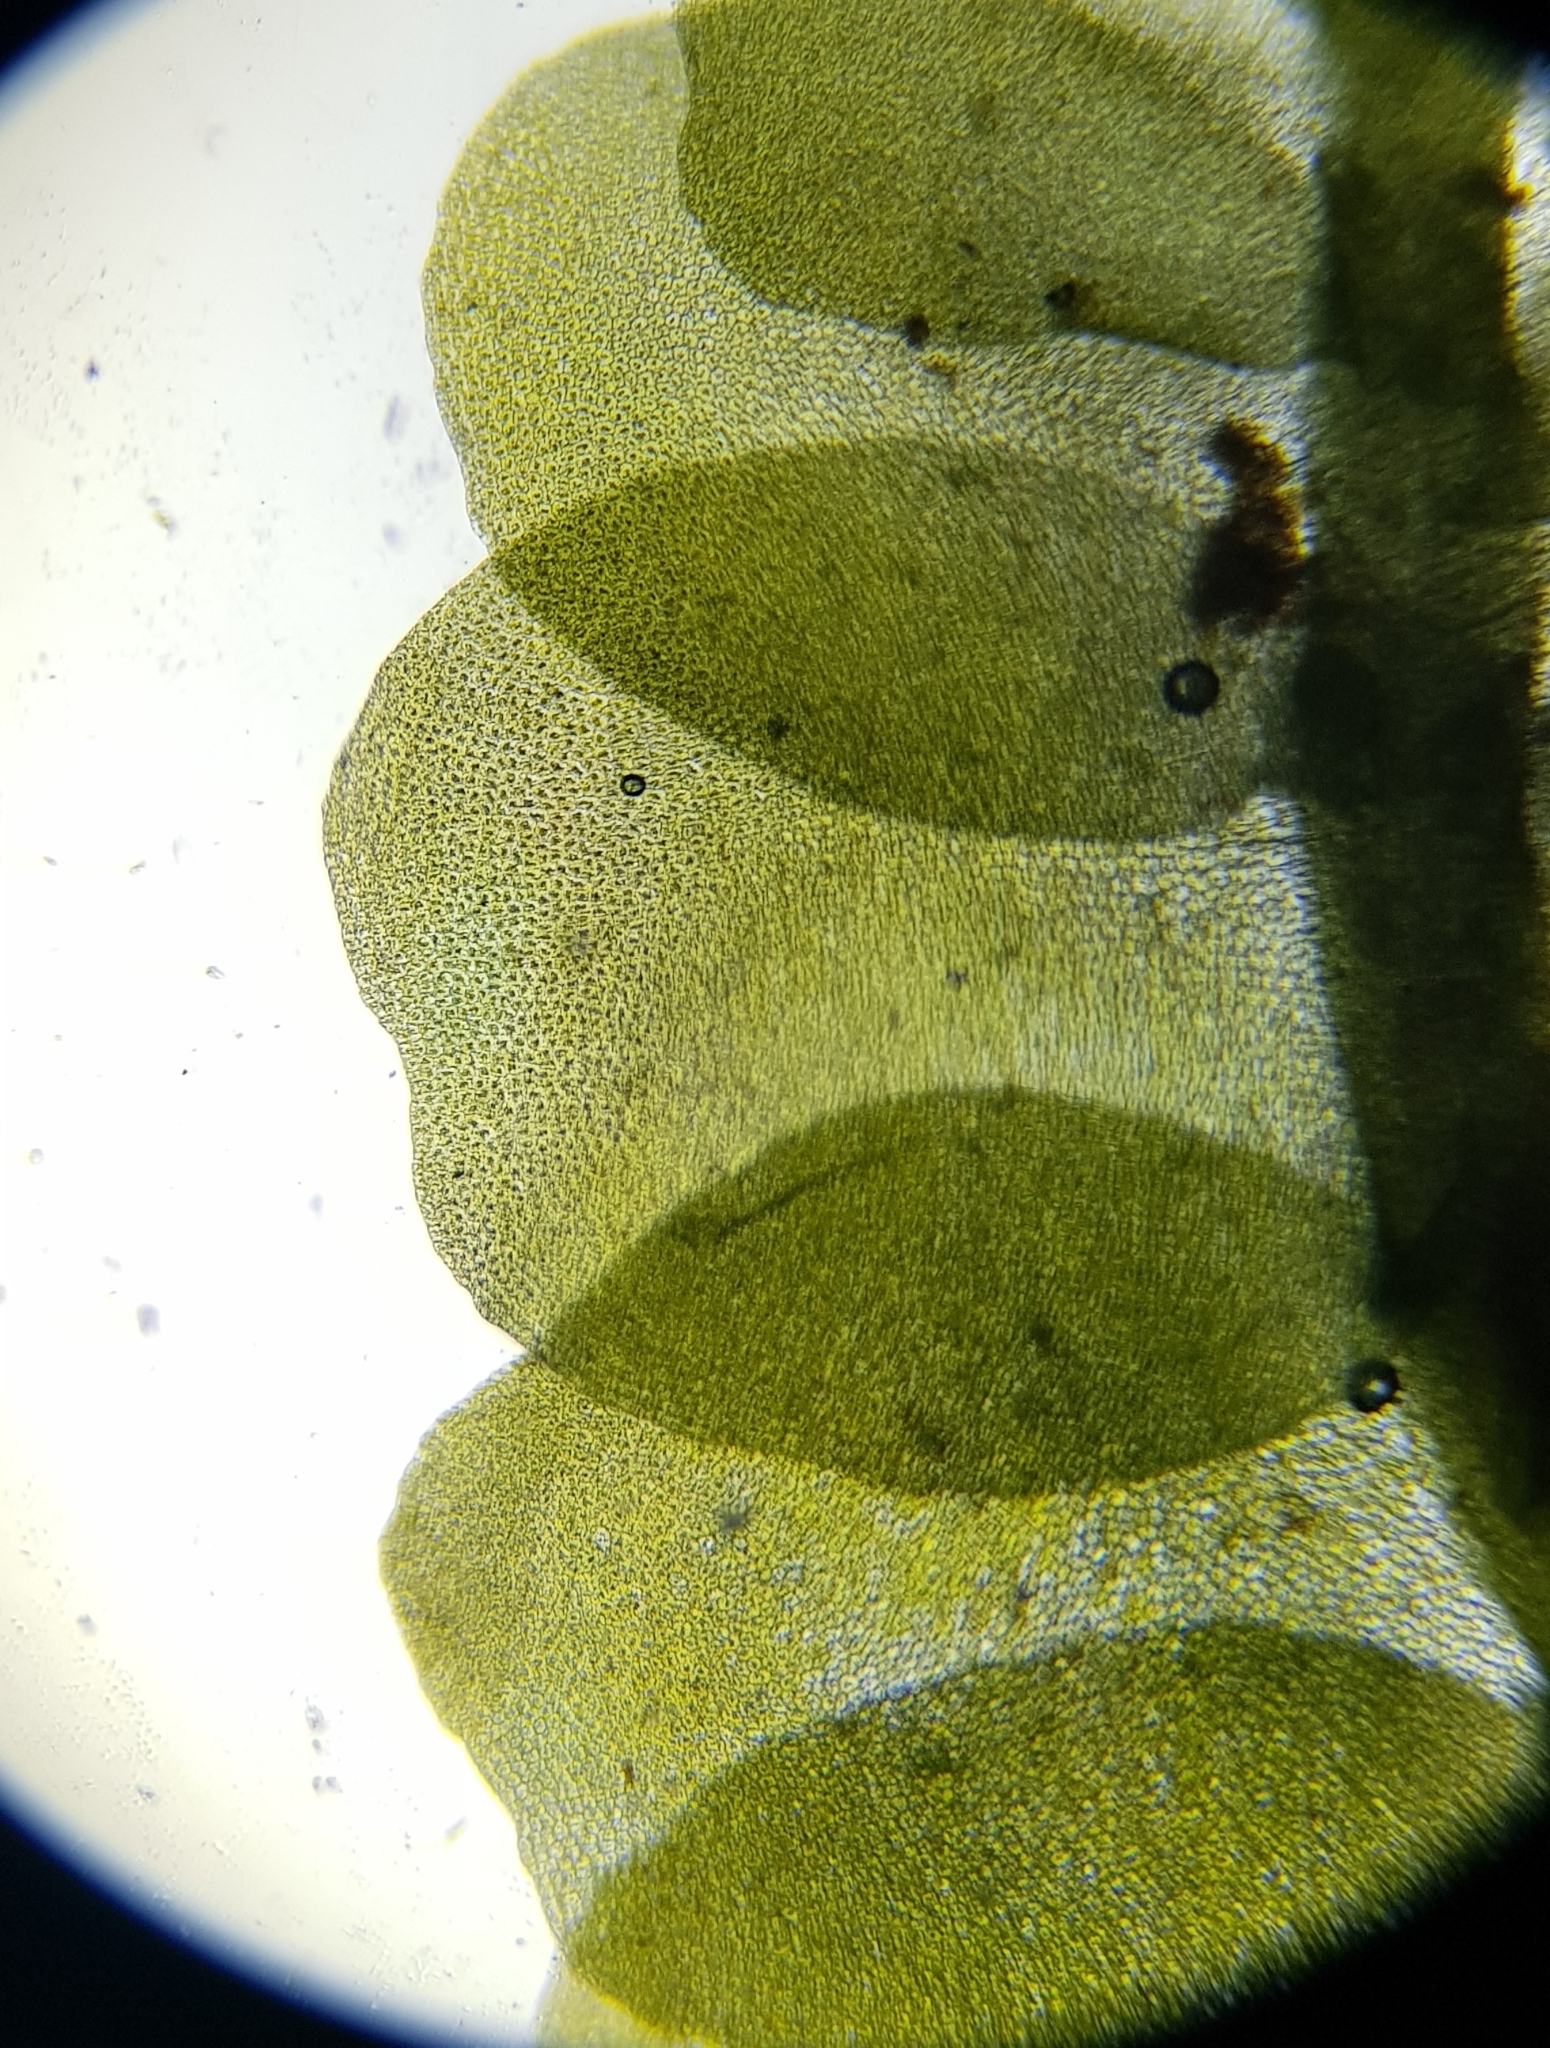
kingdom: Plantae
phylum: Marchantiophyta
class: Jungermanniopsida
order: Jungermanniales
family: Lophocoleaceae
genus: Chiloscyphus
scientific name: Chiloscyphus polyanthos
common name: Square-leaved crestwort
